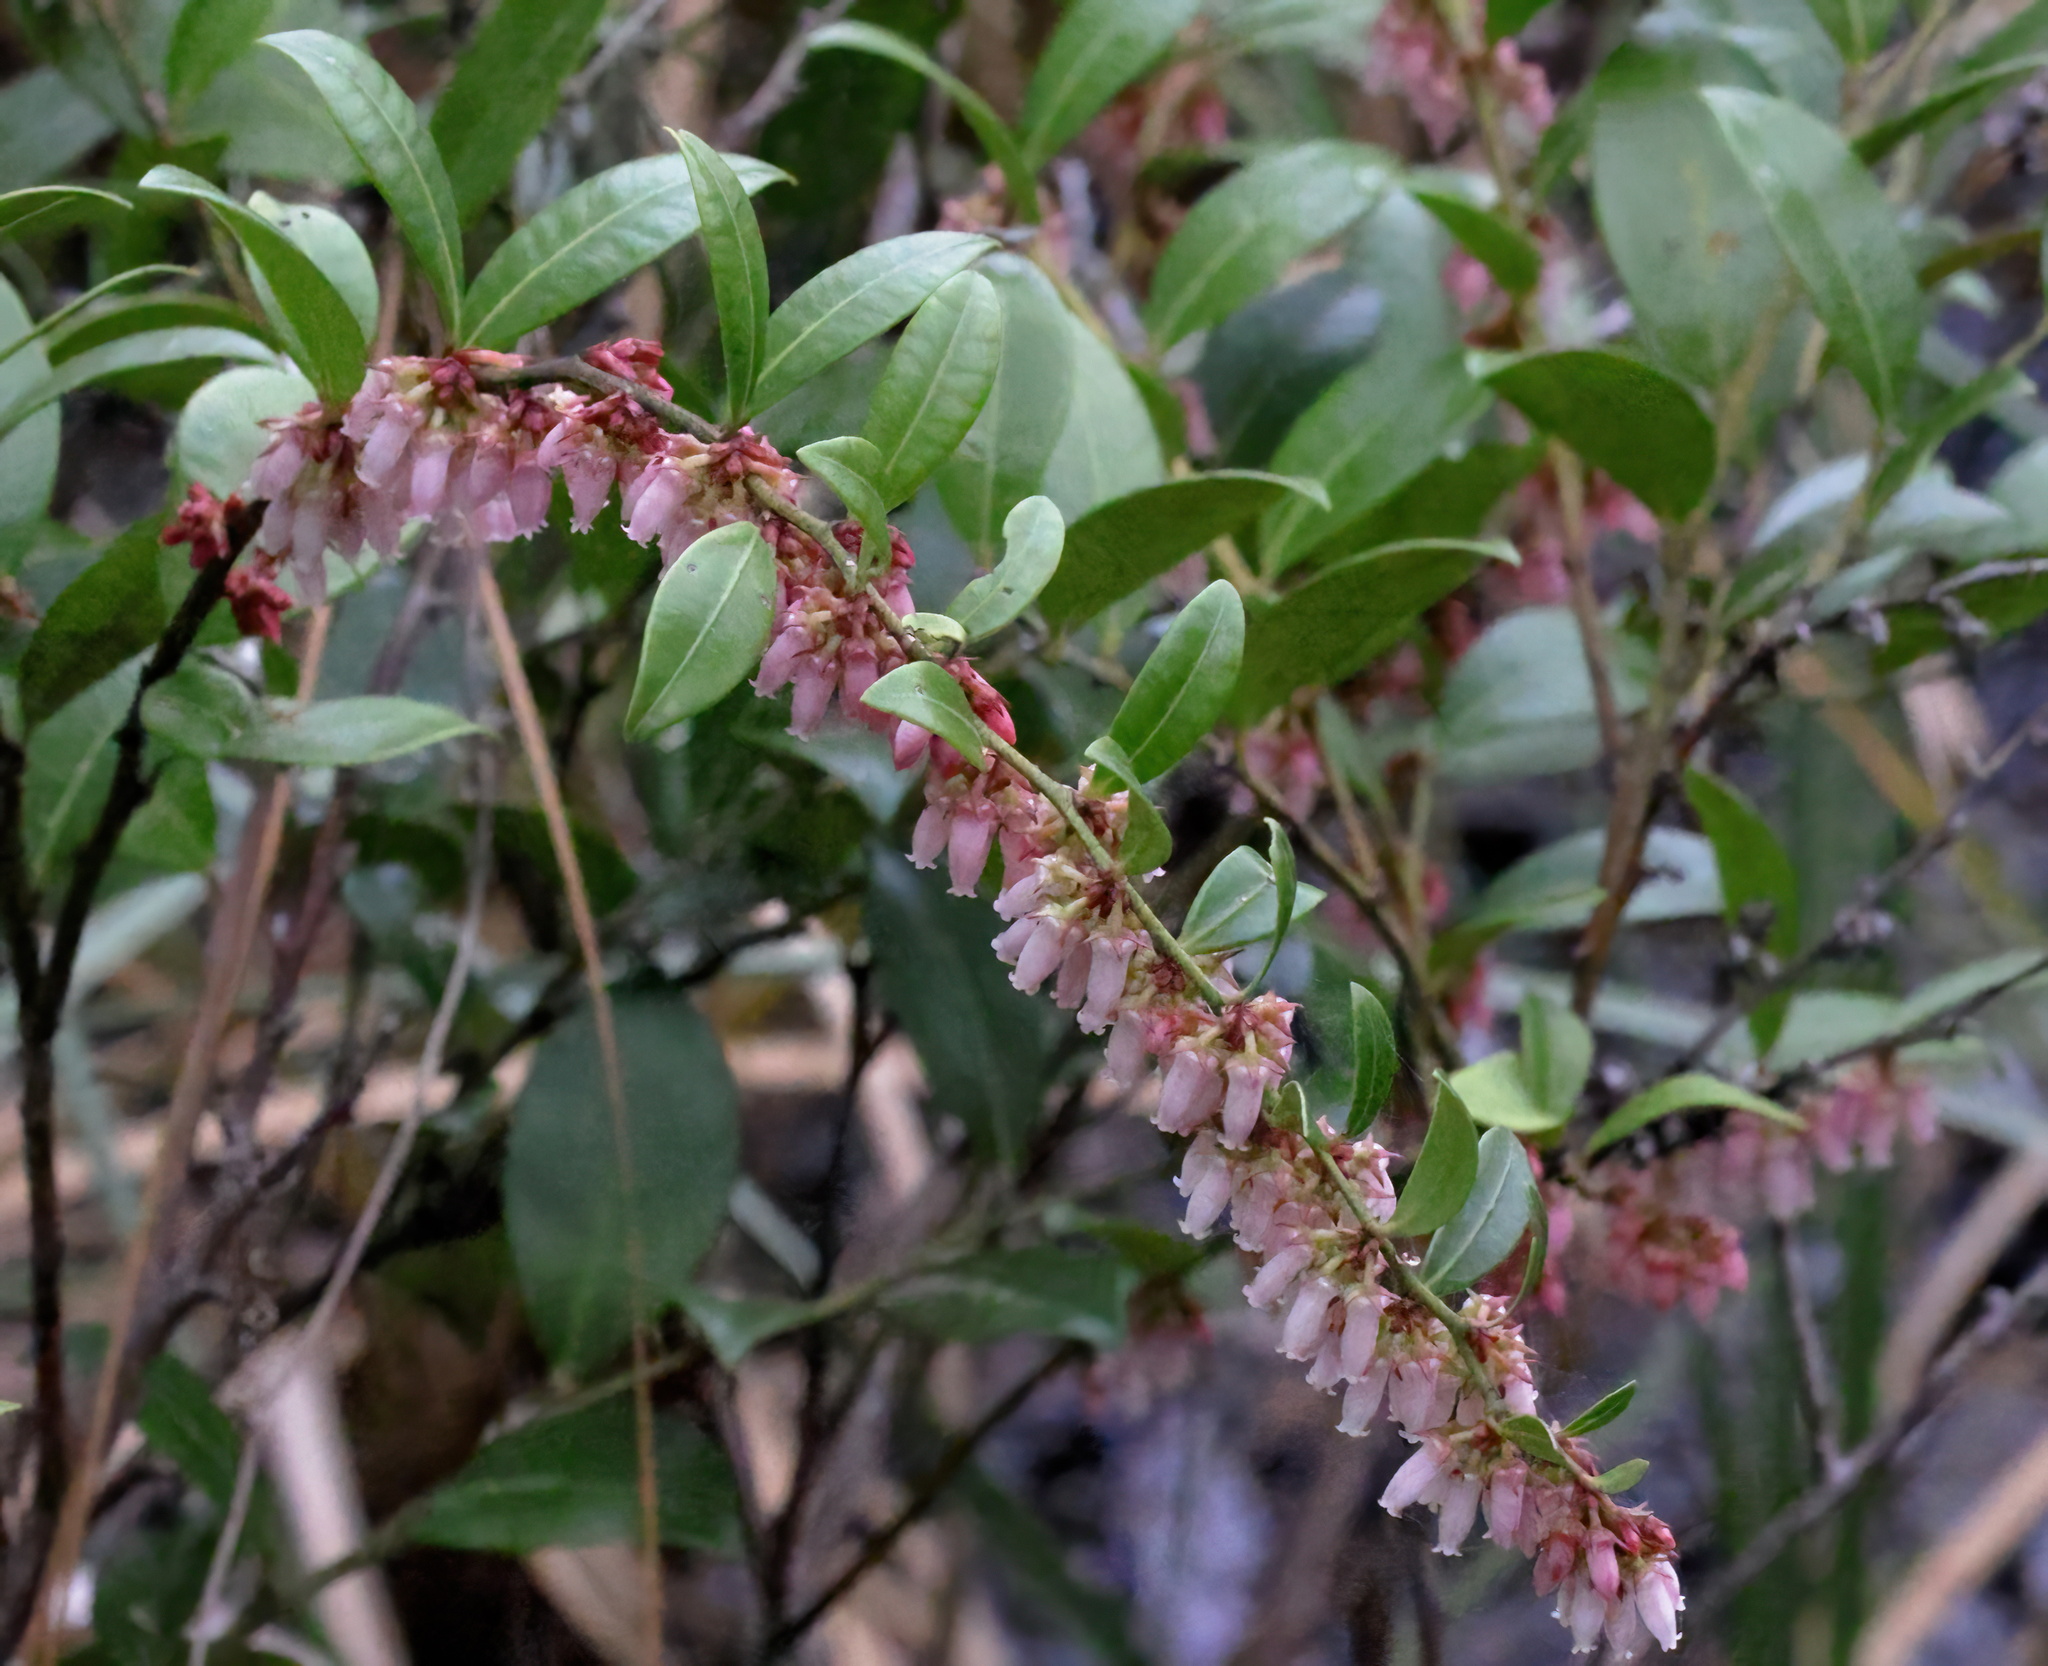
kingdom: Plantae
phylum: Tracheophyta
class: Magnoliopsida
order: Ericales
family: Ericaceae
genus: Lyonia
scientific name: Lyonia lucida
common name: Fetterbush
